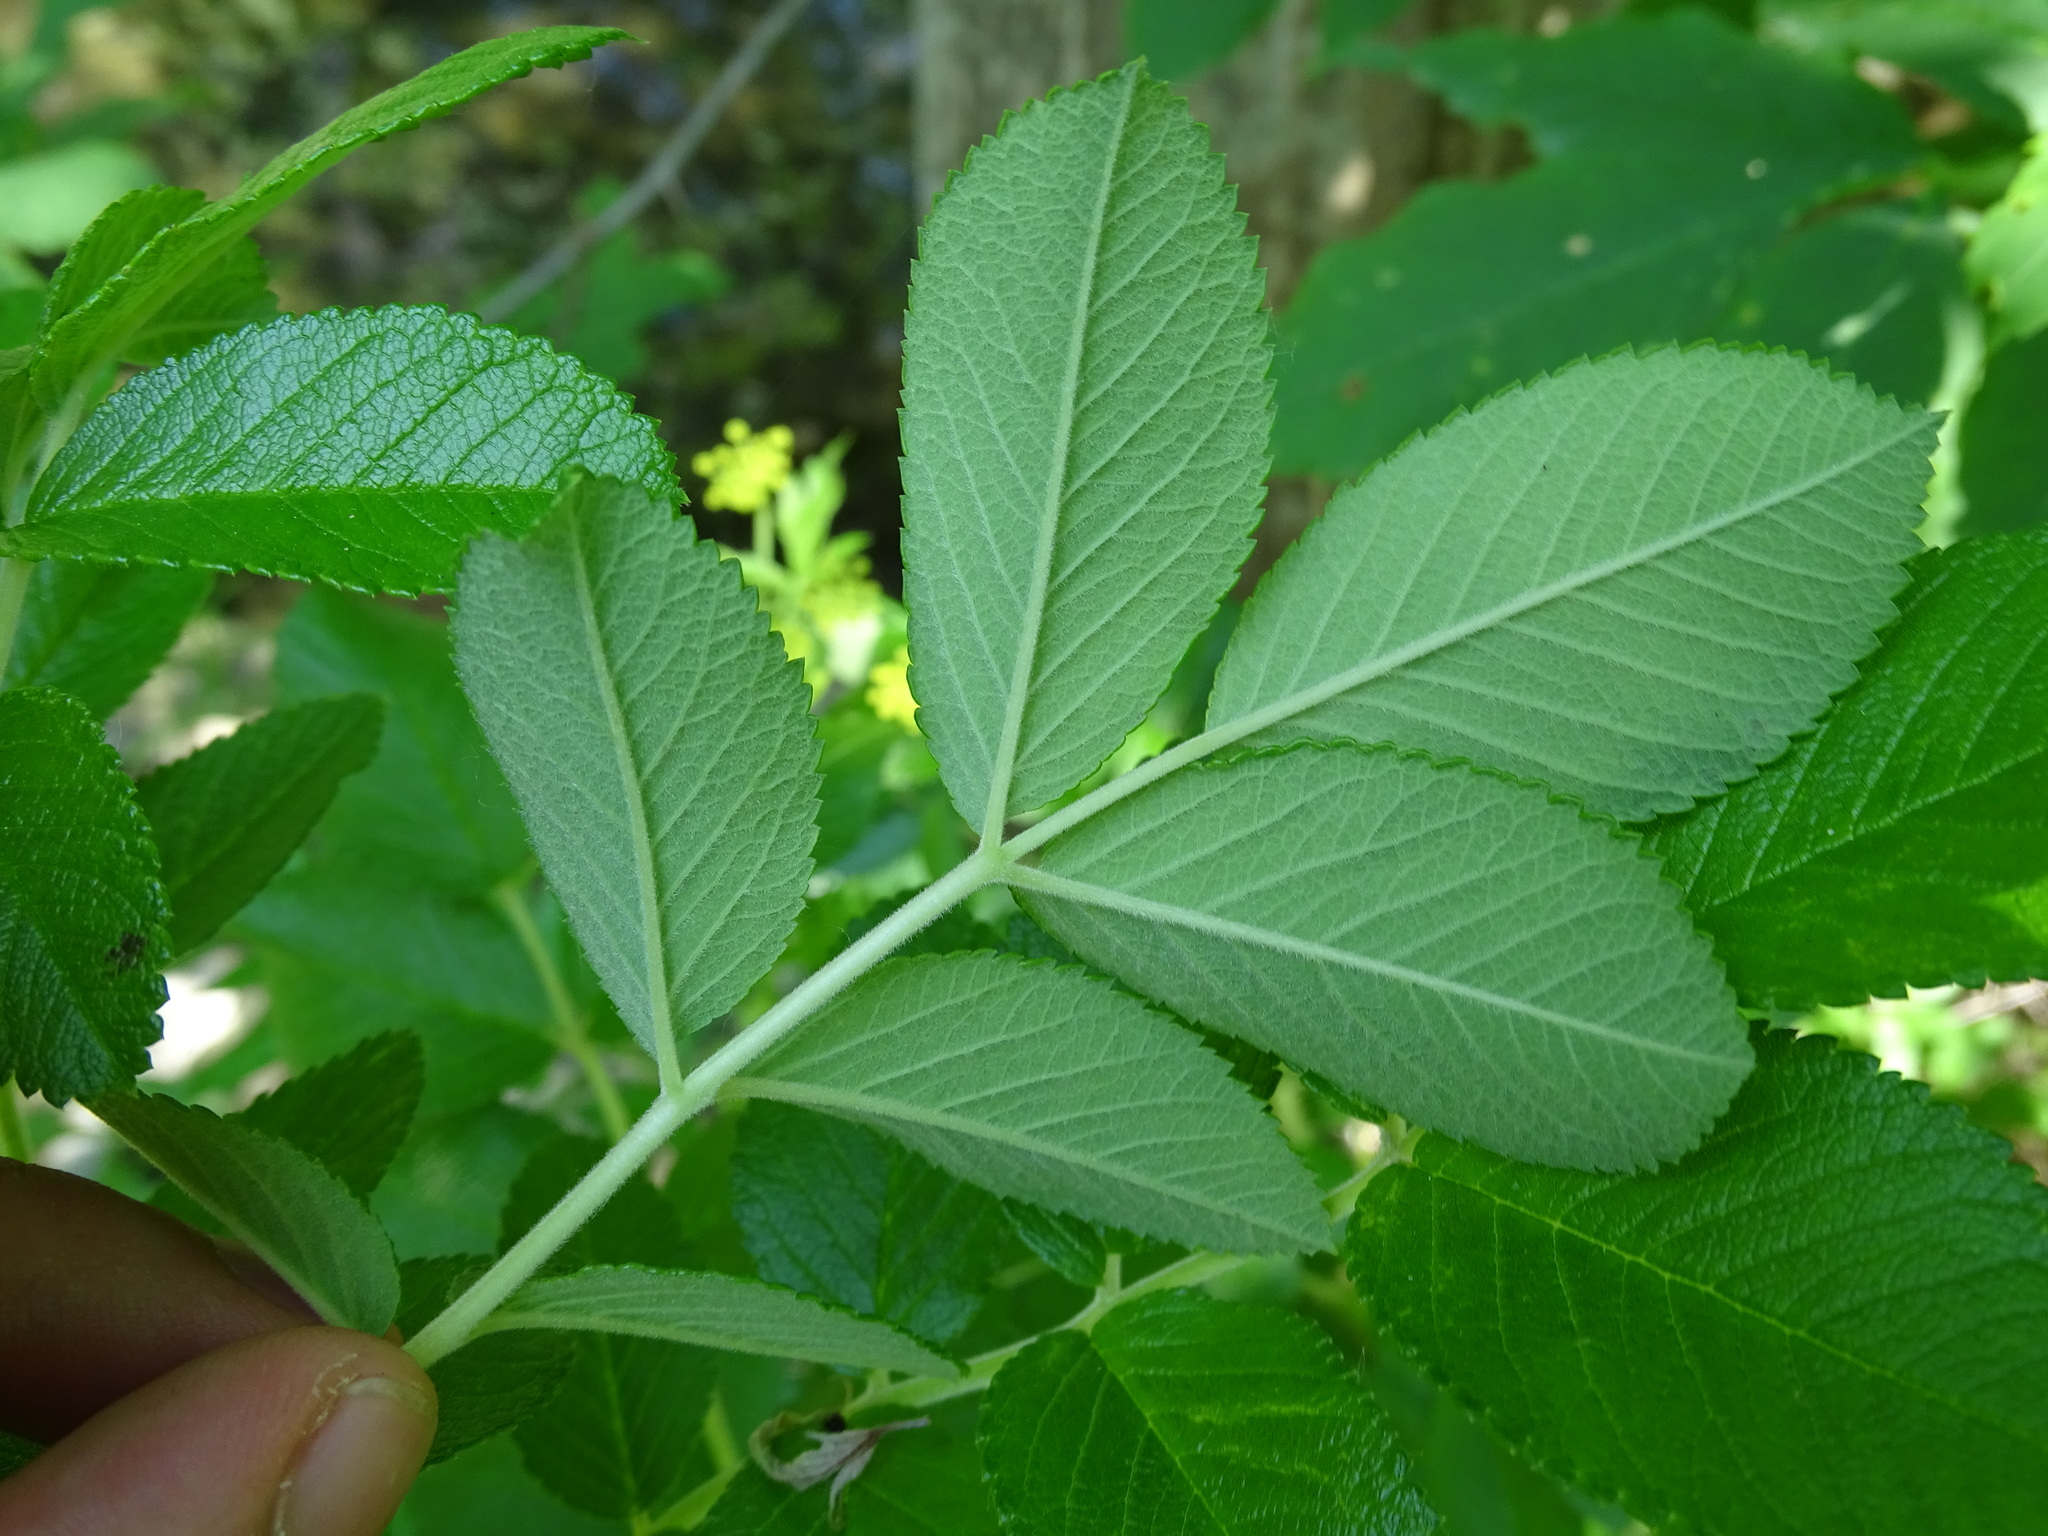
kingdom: Plantae
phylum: Tracheophyta
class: Magnoliopsida
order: Rosales
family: Rosaceae
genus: Rosa
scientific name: Rosa rugosa
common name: Japanese rose
